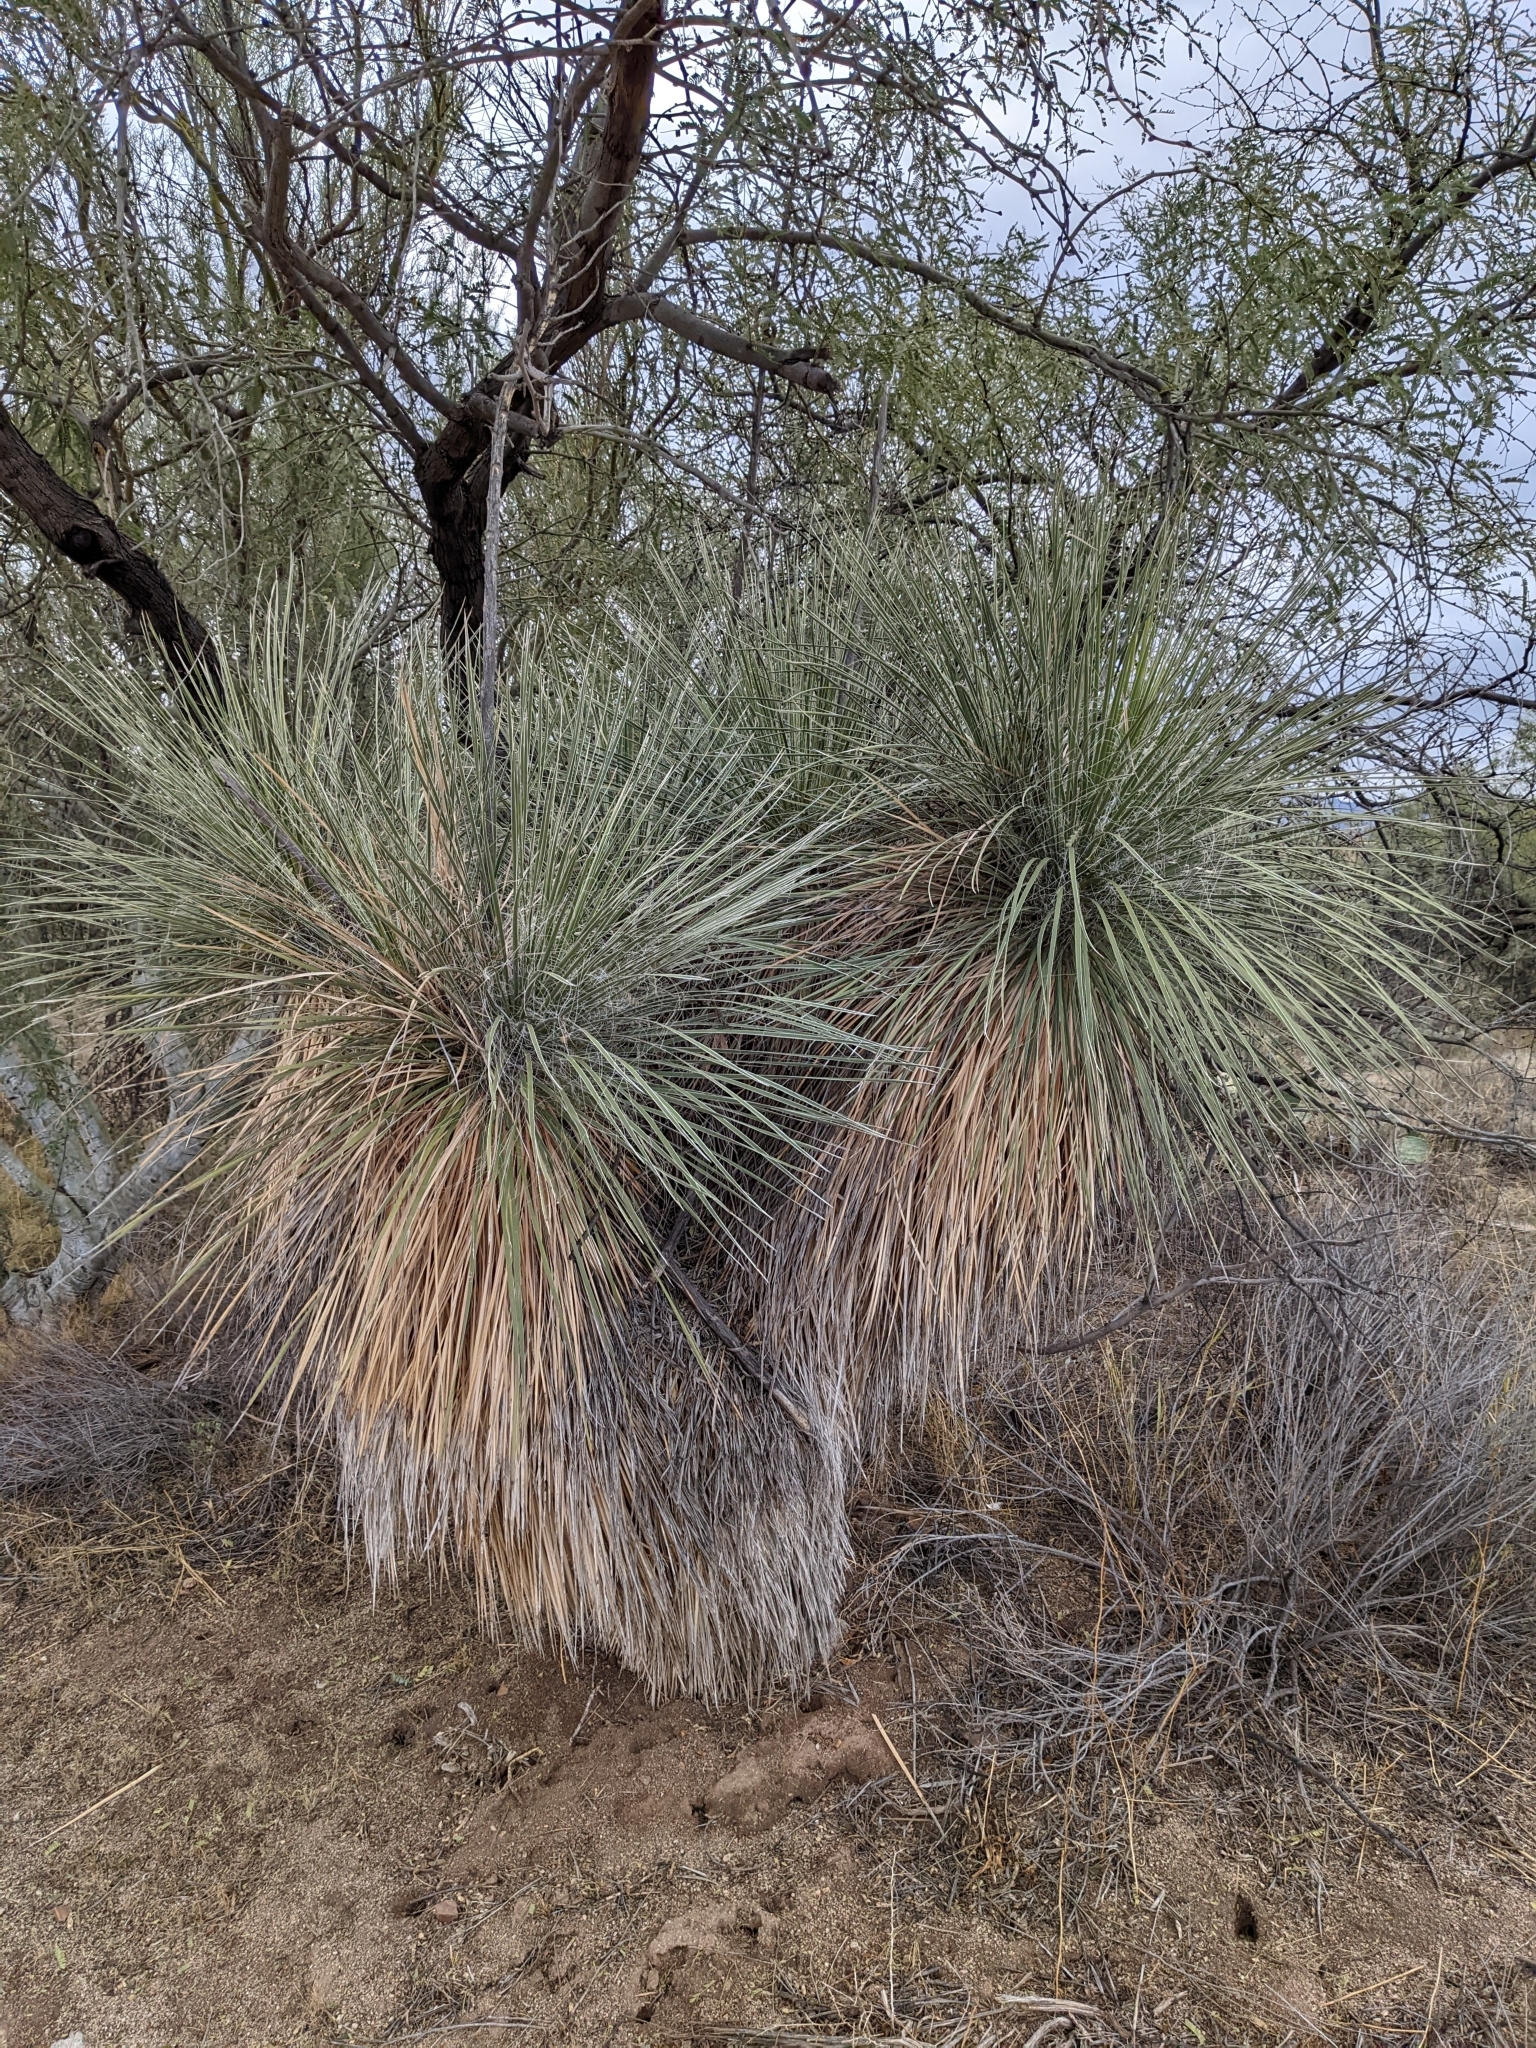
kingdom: Plantae
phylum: Tracheophyta
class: Liliopsida
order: Asparagales
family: Asparagaceae
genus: Yucca
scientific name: Yucca elata
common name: Palmella
